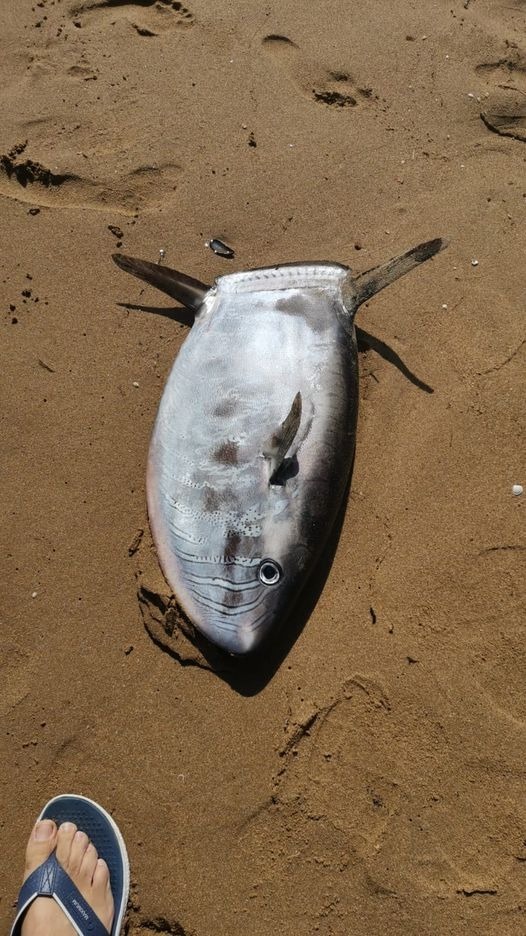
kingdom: Animalia
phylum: Chordata
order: Tetraodontiformes
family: Molidae
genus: Ranzania
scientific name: Ranzania laevis
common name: Slender sunfish
